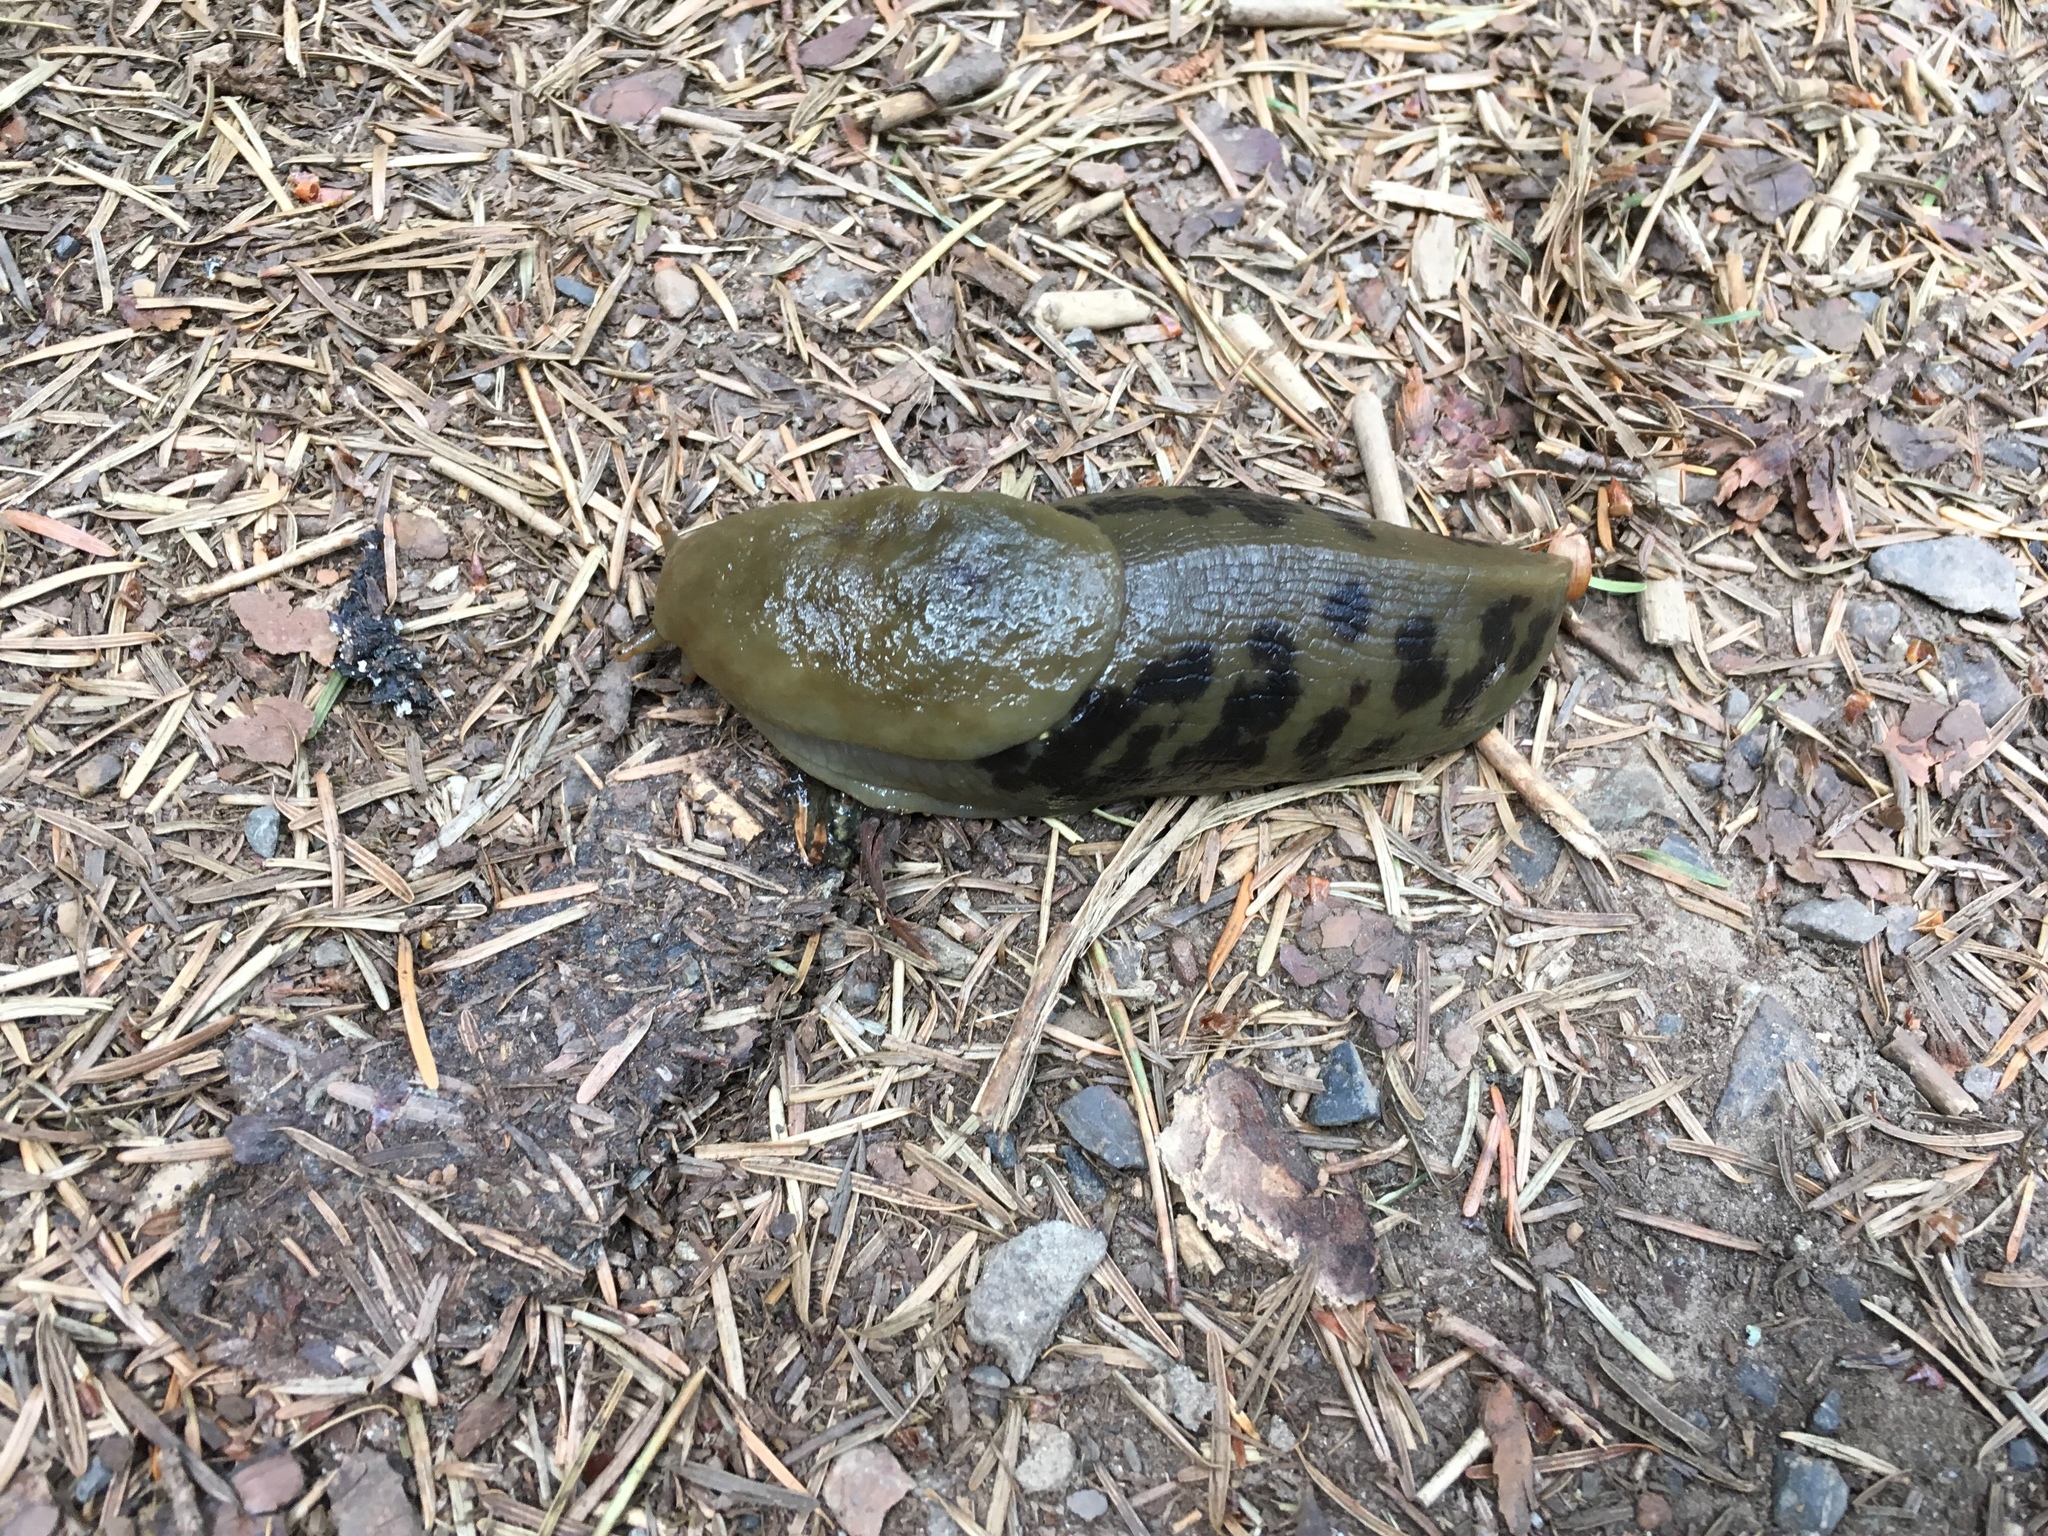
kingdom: Animalia
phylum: Mollusca
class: Gastropoda
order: Stylommatophora
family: Ariolimacidae
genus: Ariolimax
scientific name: Ariolimax columbianus
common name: Pacific banana slug
